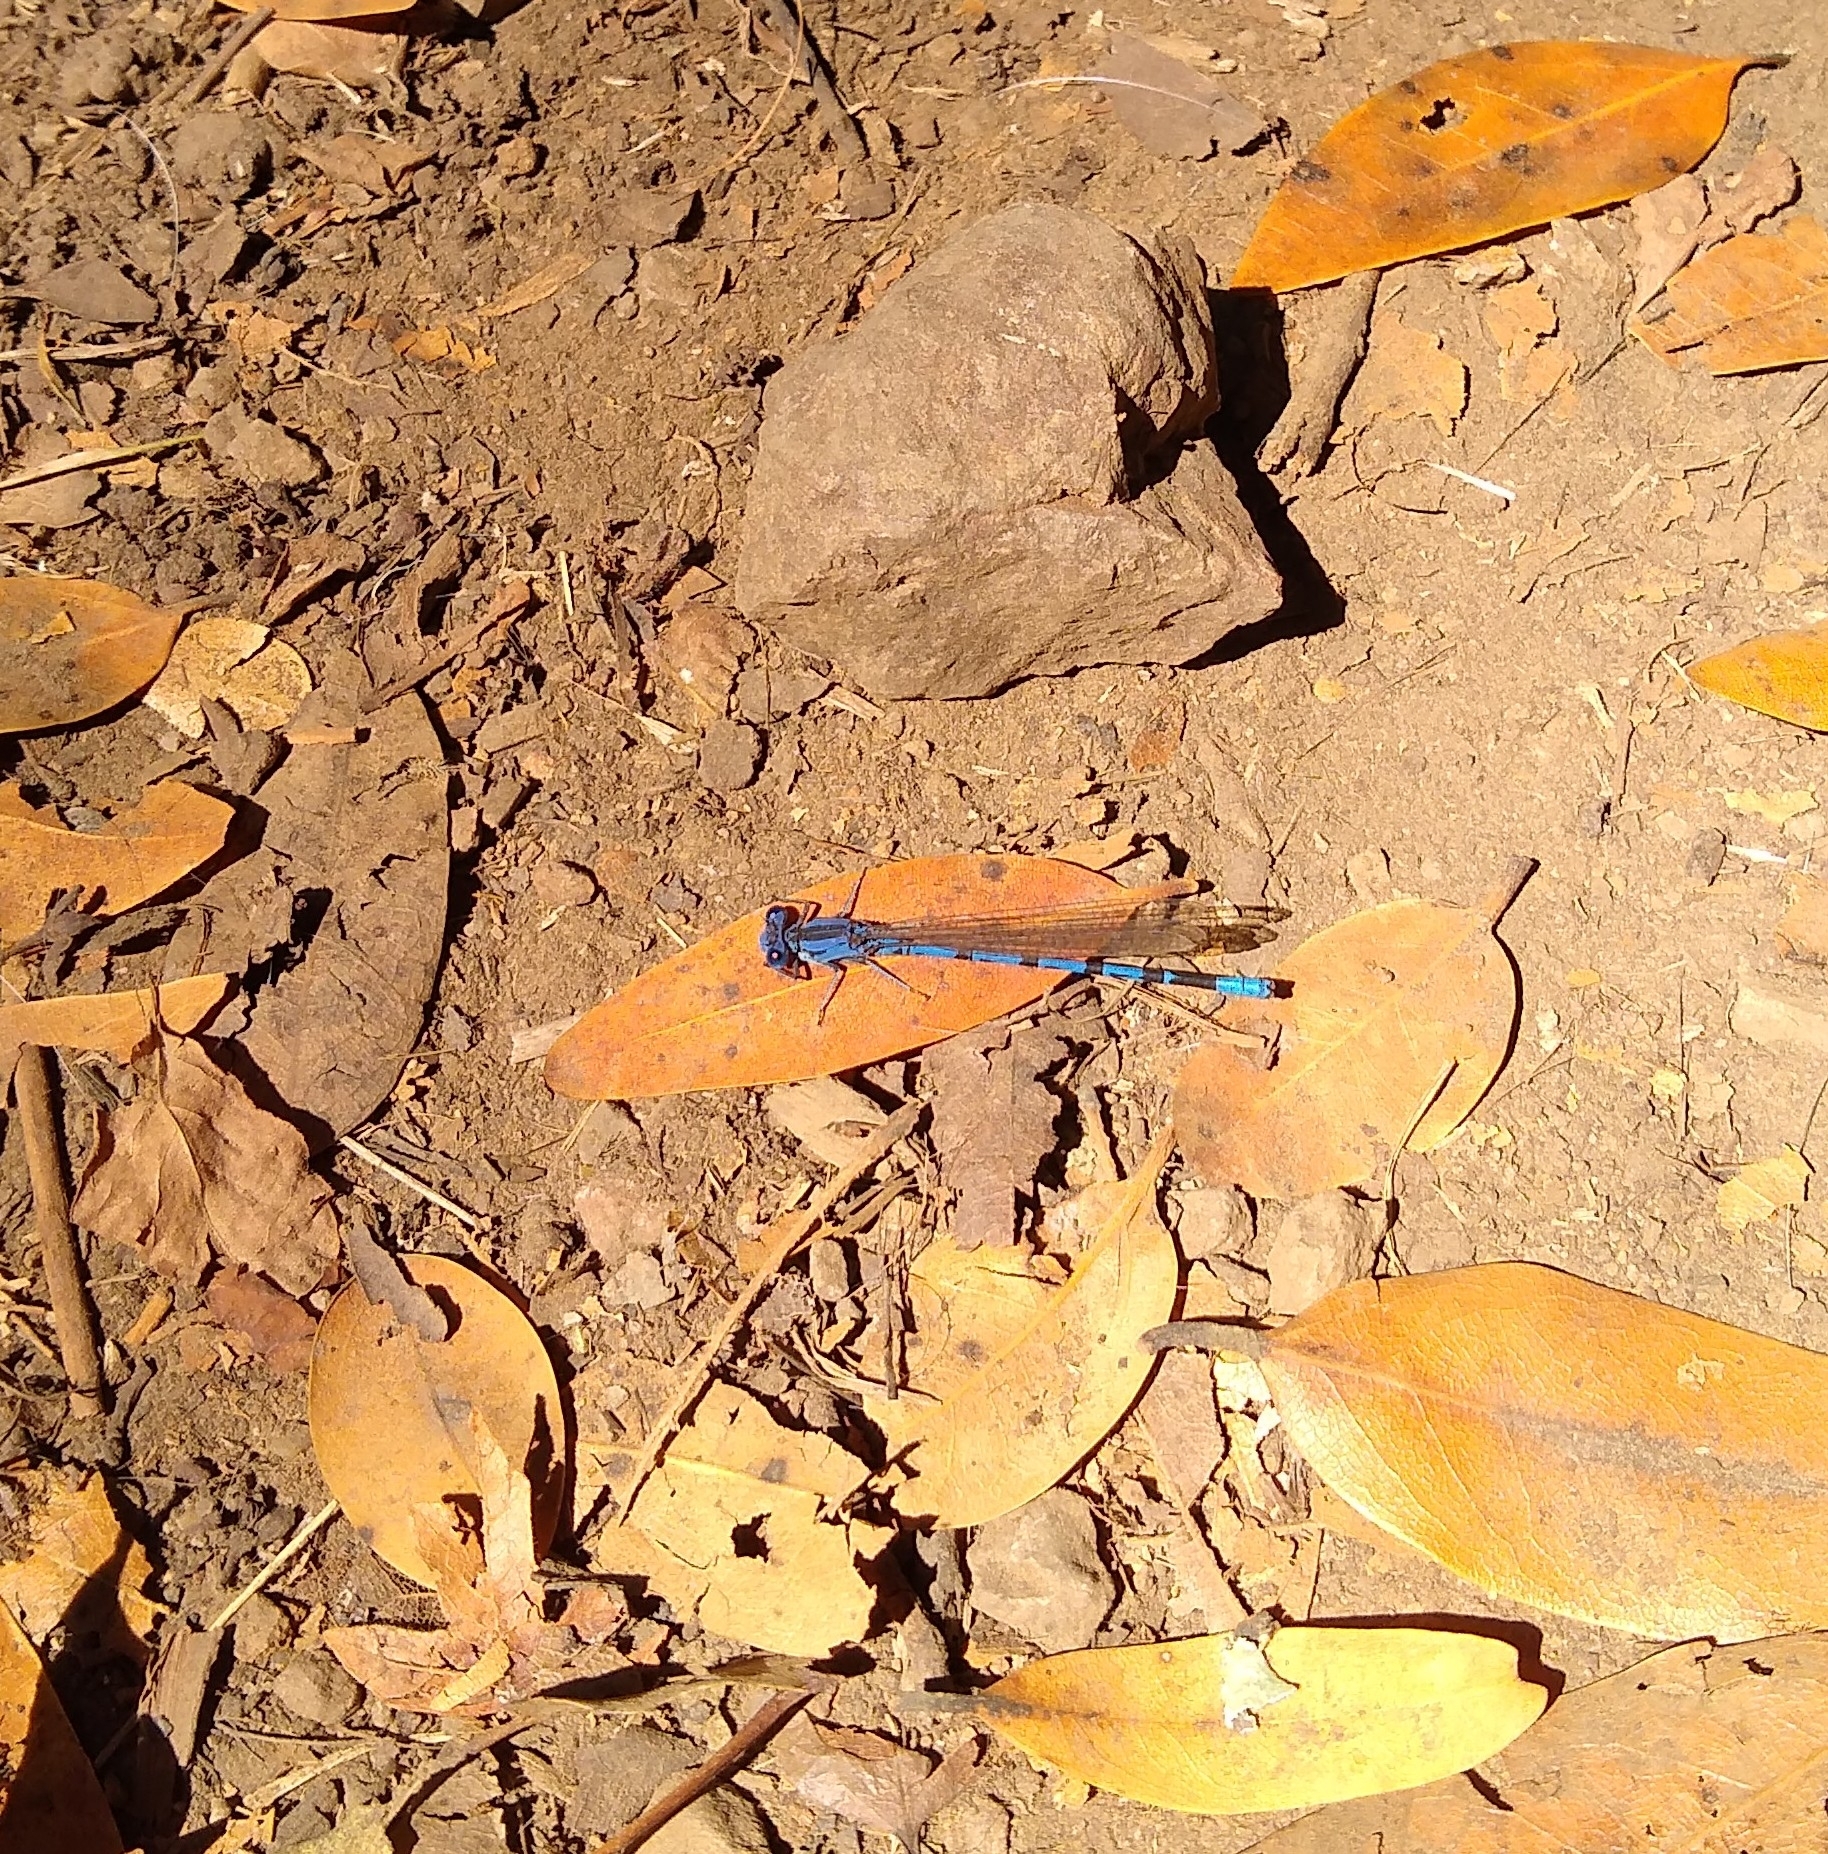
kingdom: Animalia
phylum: Arthropoda
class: Insecta
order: Odonata
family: Coenagrionidae
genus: Argia
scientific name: Argia vivida
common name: Vivid dancer
